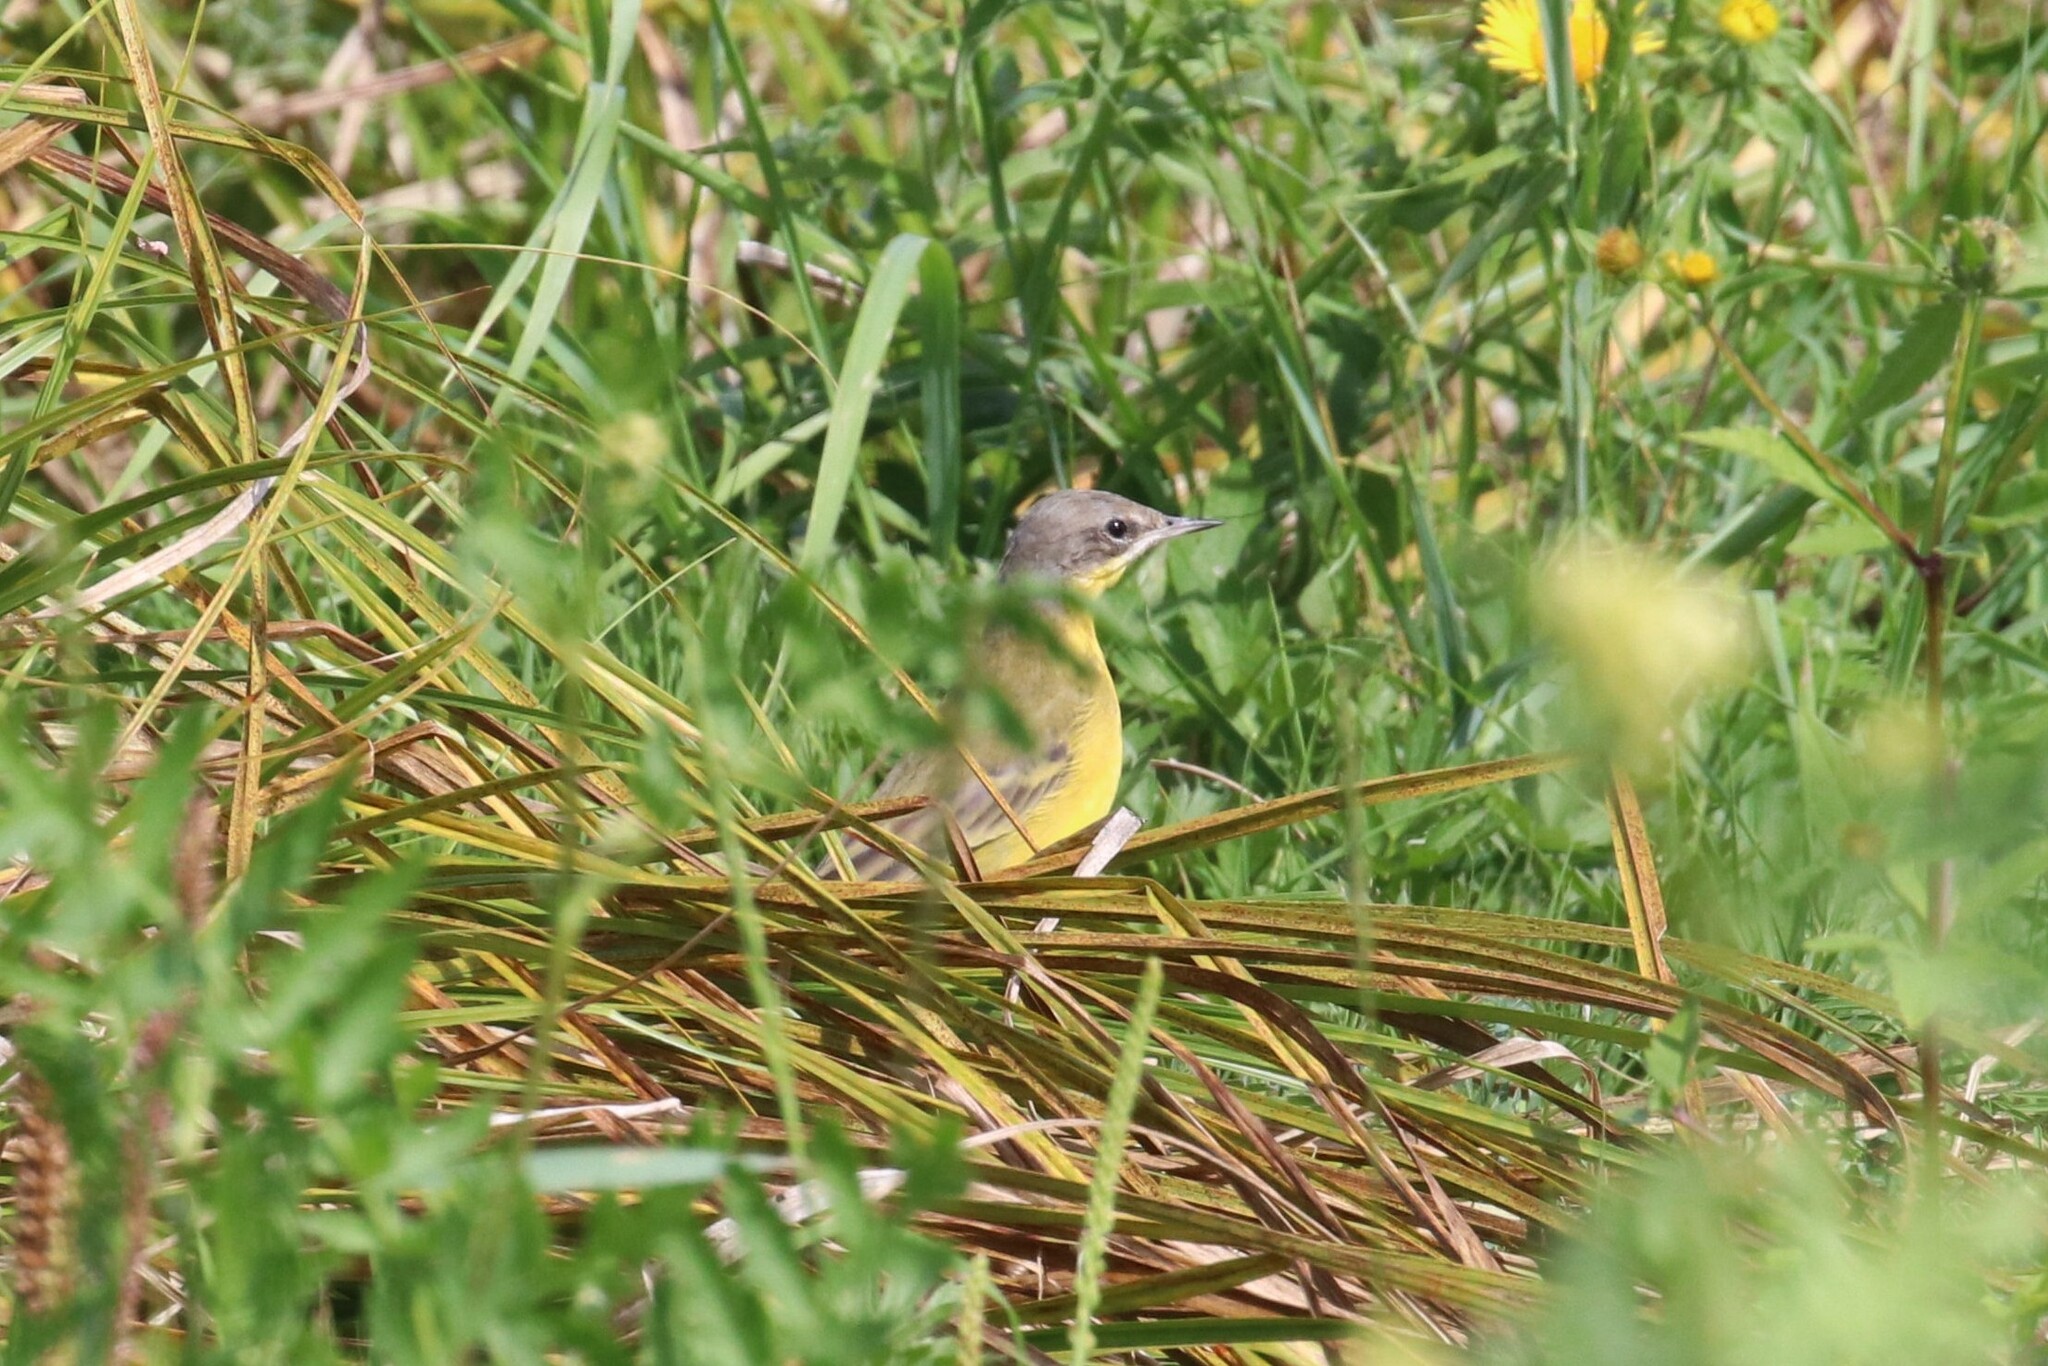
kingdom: Animalia
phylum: Chordata
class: Aves
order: Passeriformes
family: Motacillidae
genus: Motacilla
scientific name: Motacilla flava
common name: Western yellow wagtail
